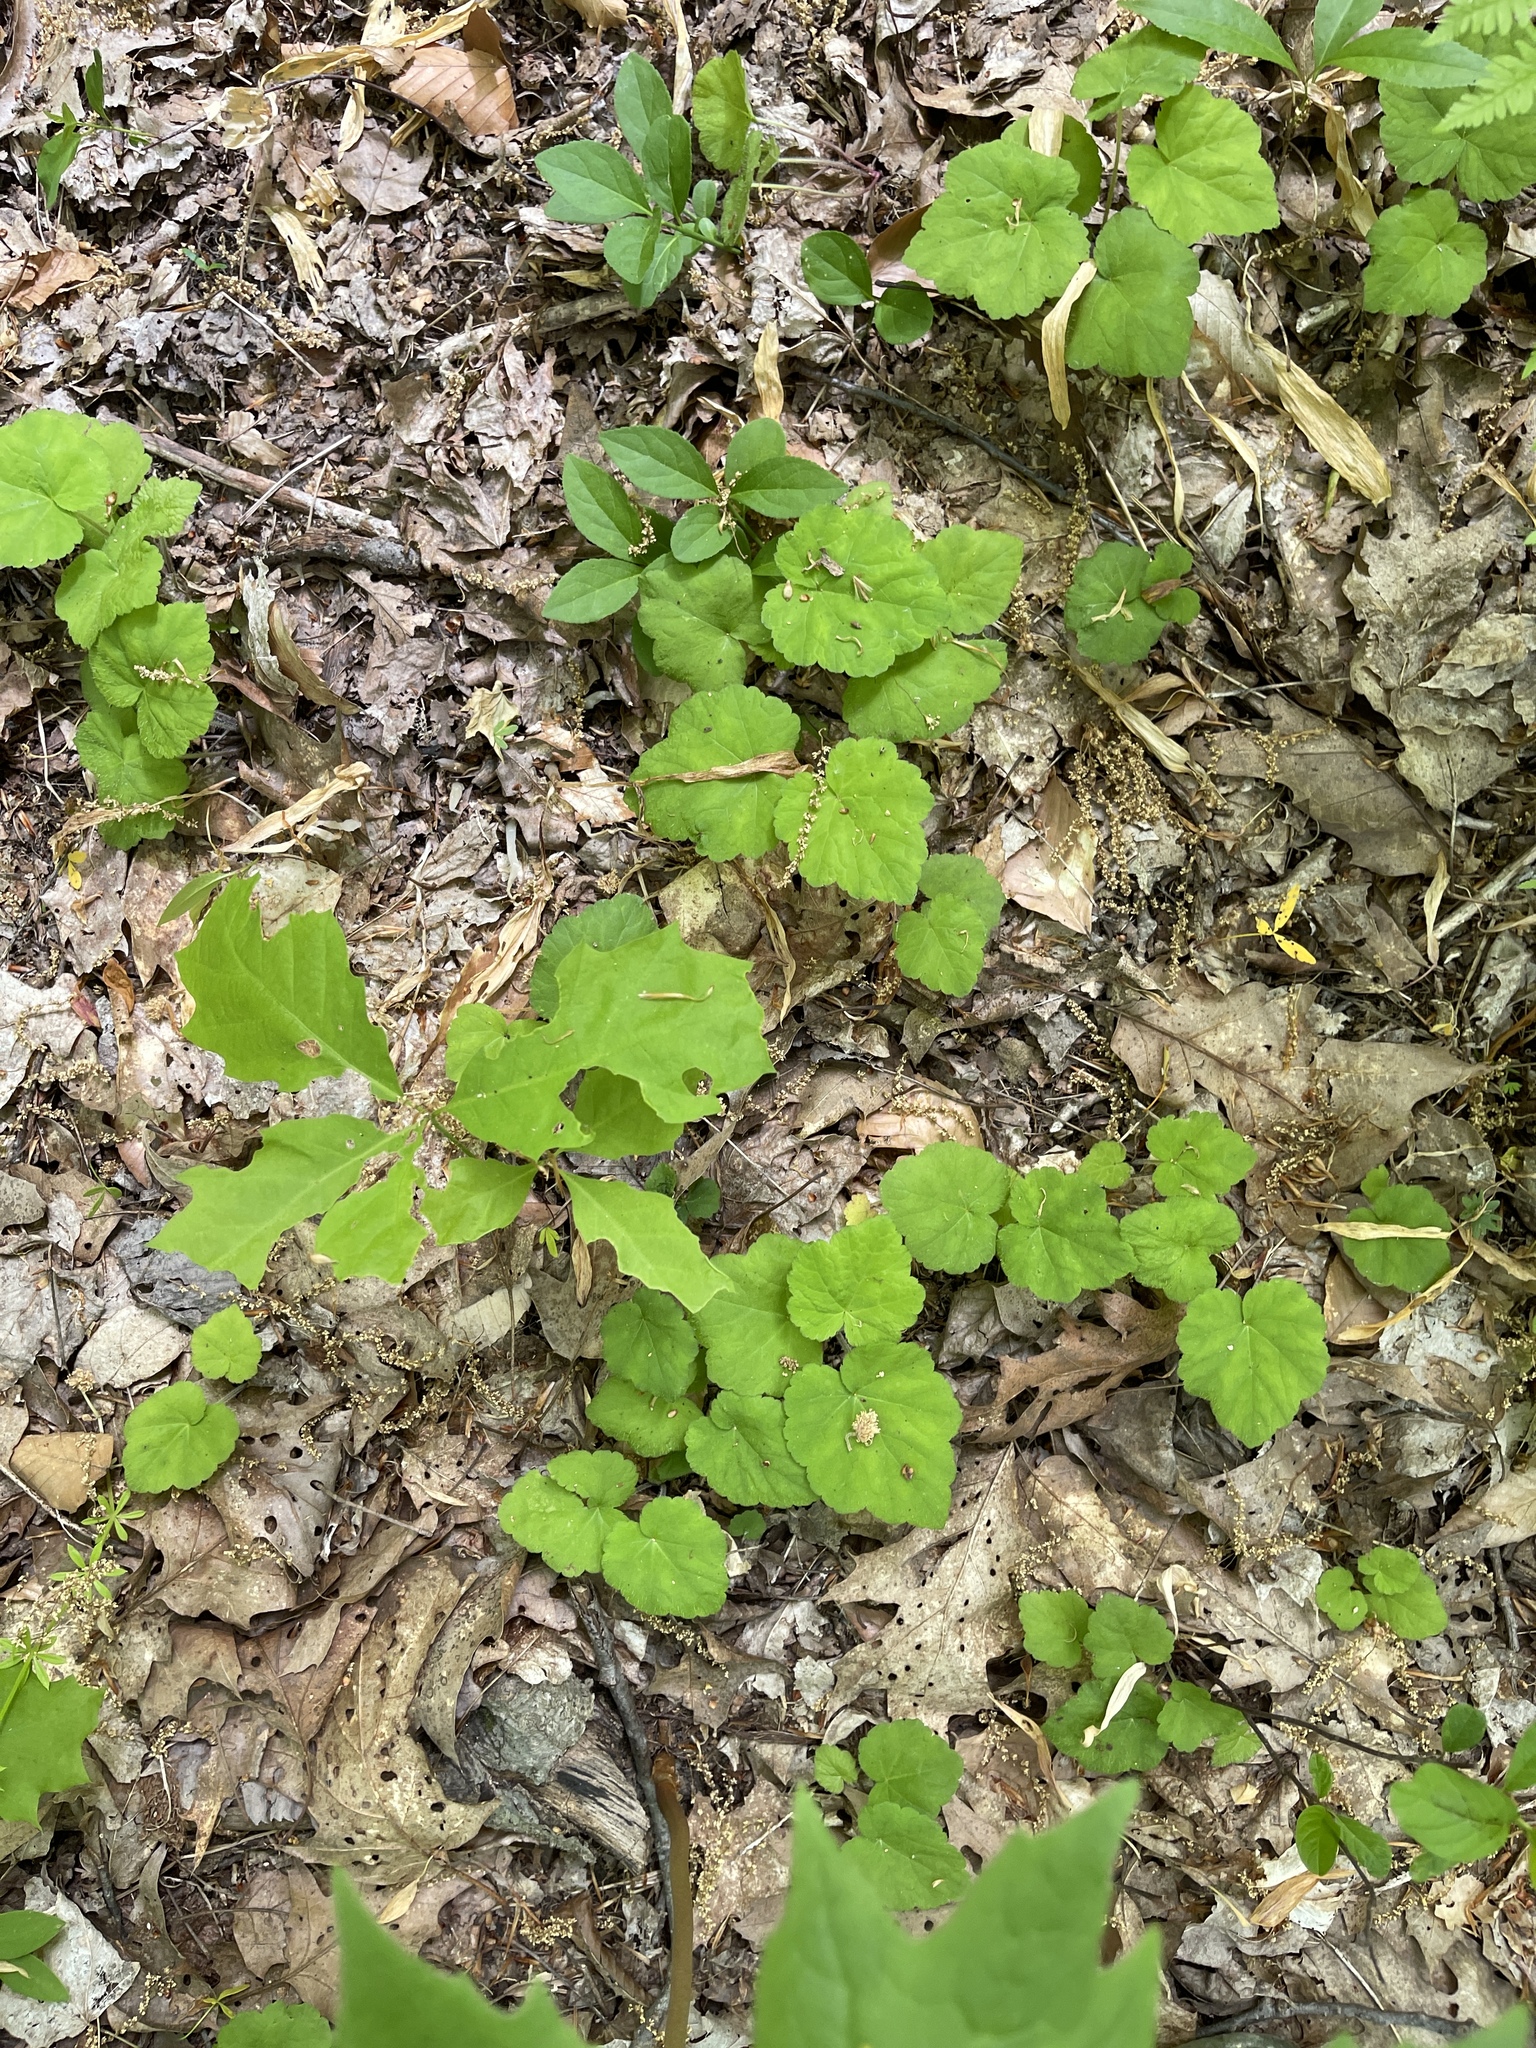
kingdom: Plantae
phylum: Tracheophyta
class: Magnoliopsida
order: Saxifragales
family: Saxifragaceae
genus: Tiarella
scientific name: Tiarella stolonifera
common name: Stoloniferous foamflower
